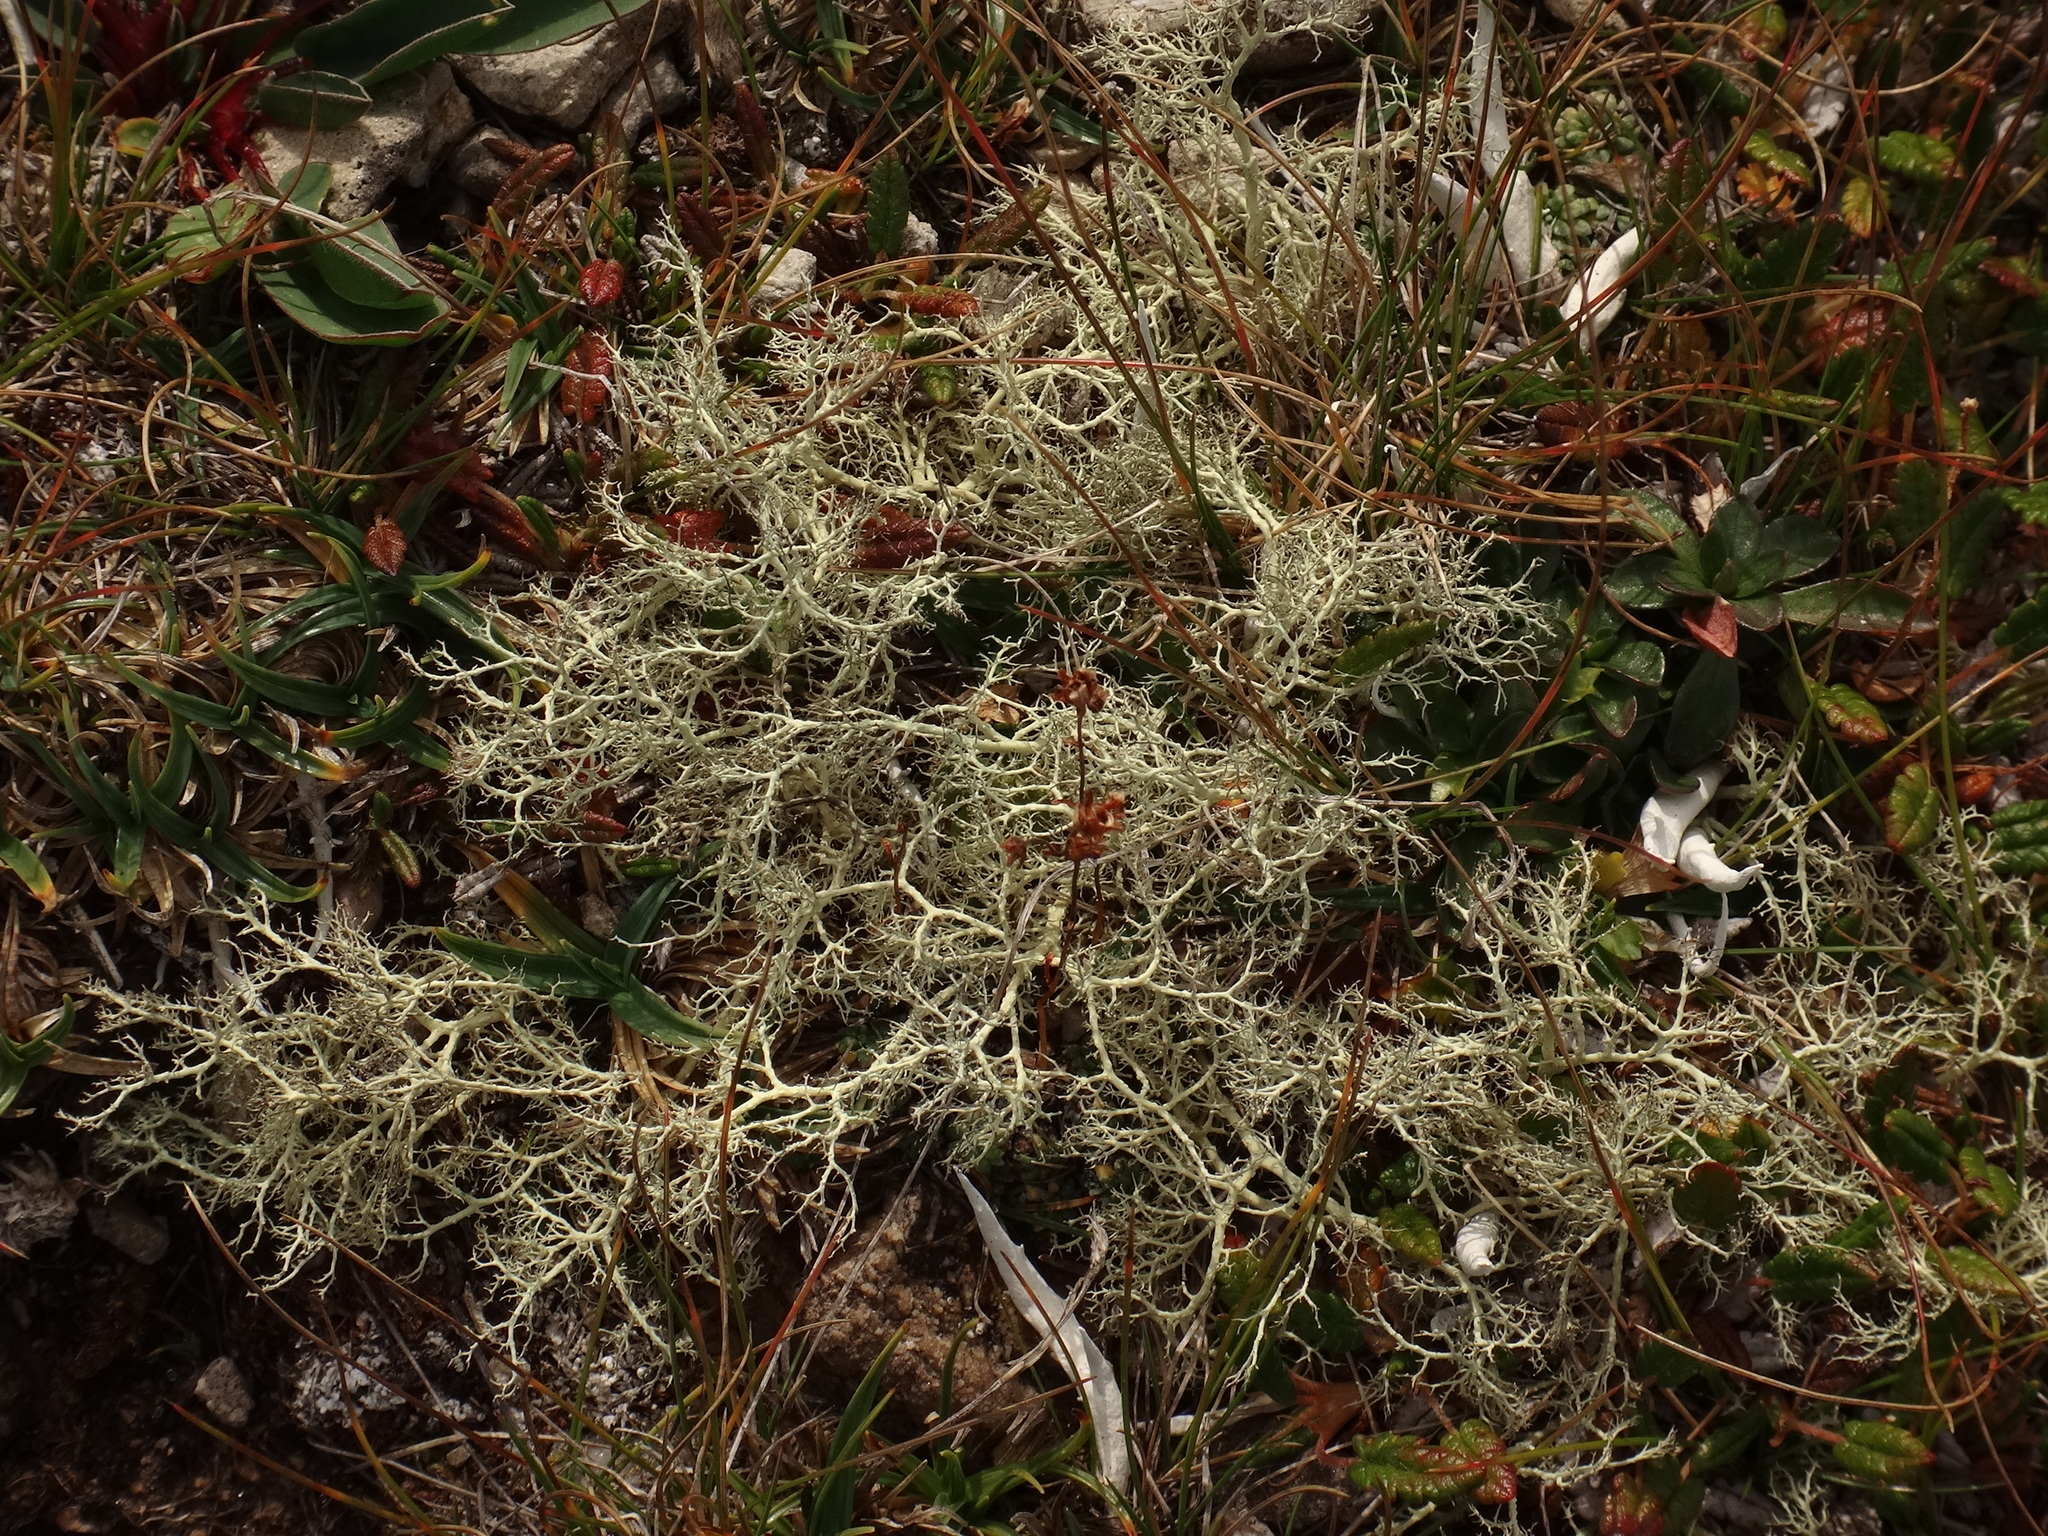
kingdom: Fungi
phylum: Ascomycota
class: Lecanoromycetes
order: Lecanorales
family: Parmeliaceae
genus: Alectoria
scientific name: Alectoria ochroleuca
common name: Alpine sulphur-tresses
